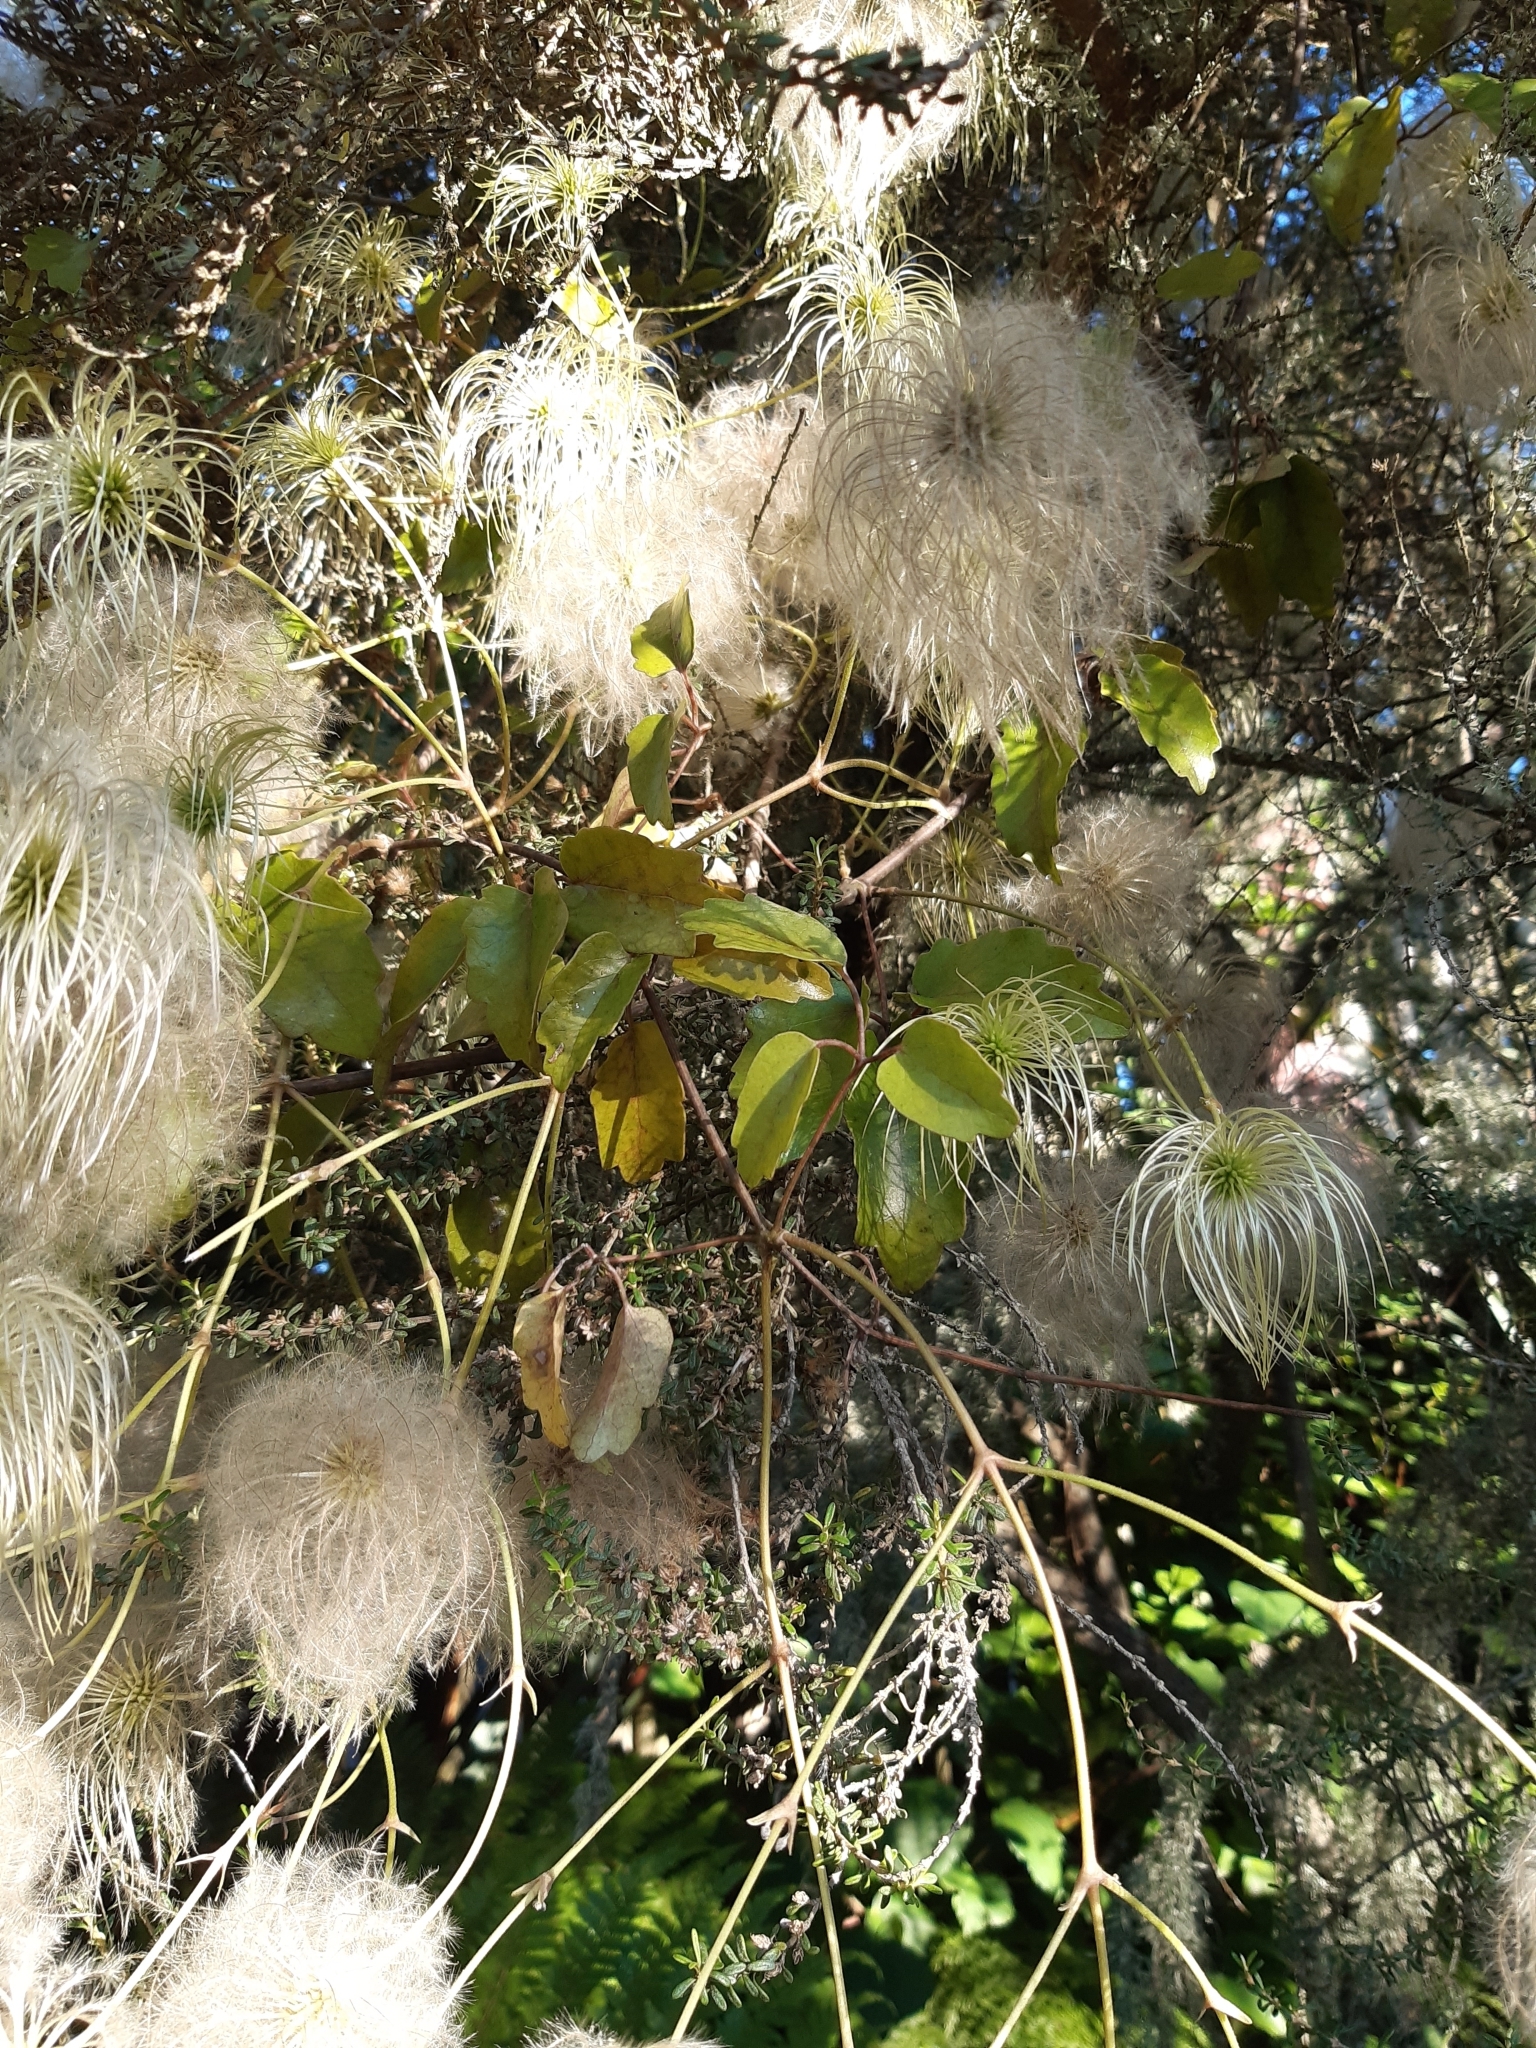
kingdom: Plantae
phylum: Tracheophyta
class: Magnoliopsida
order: Ranunculales
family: Ranunculaceae
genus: Clematis
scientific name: Clematis paniculata
